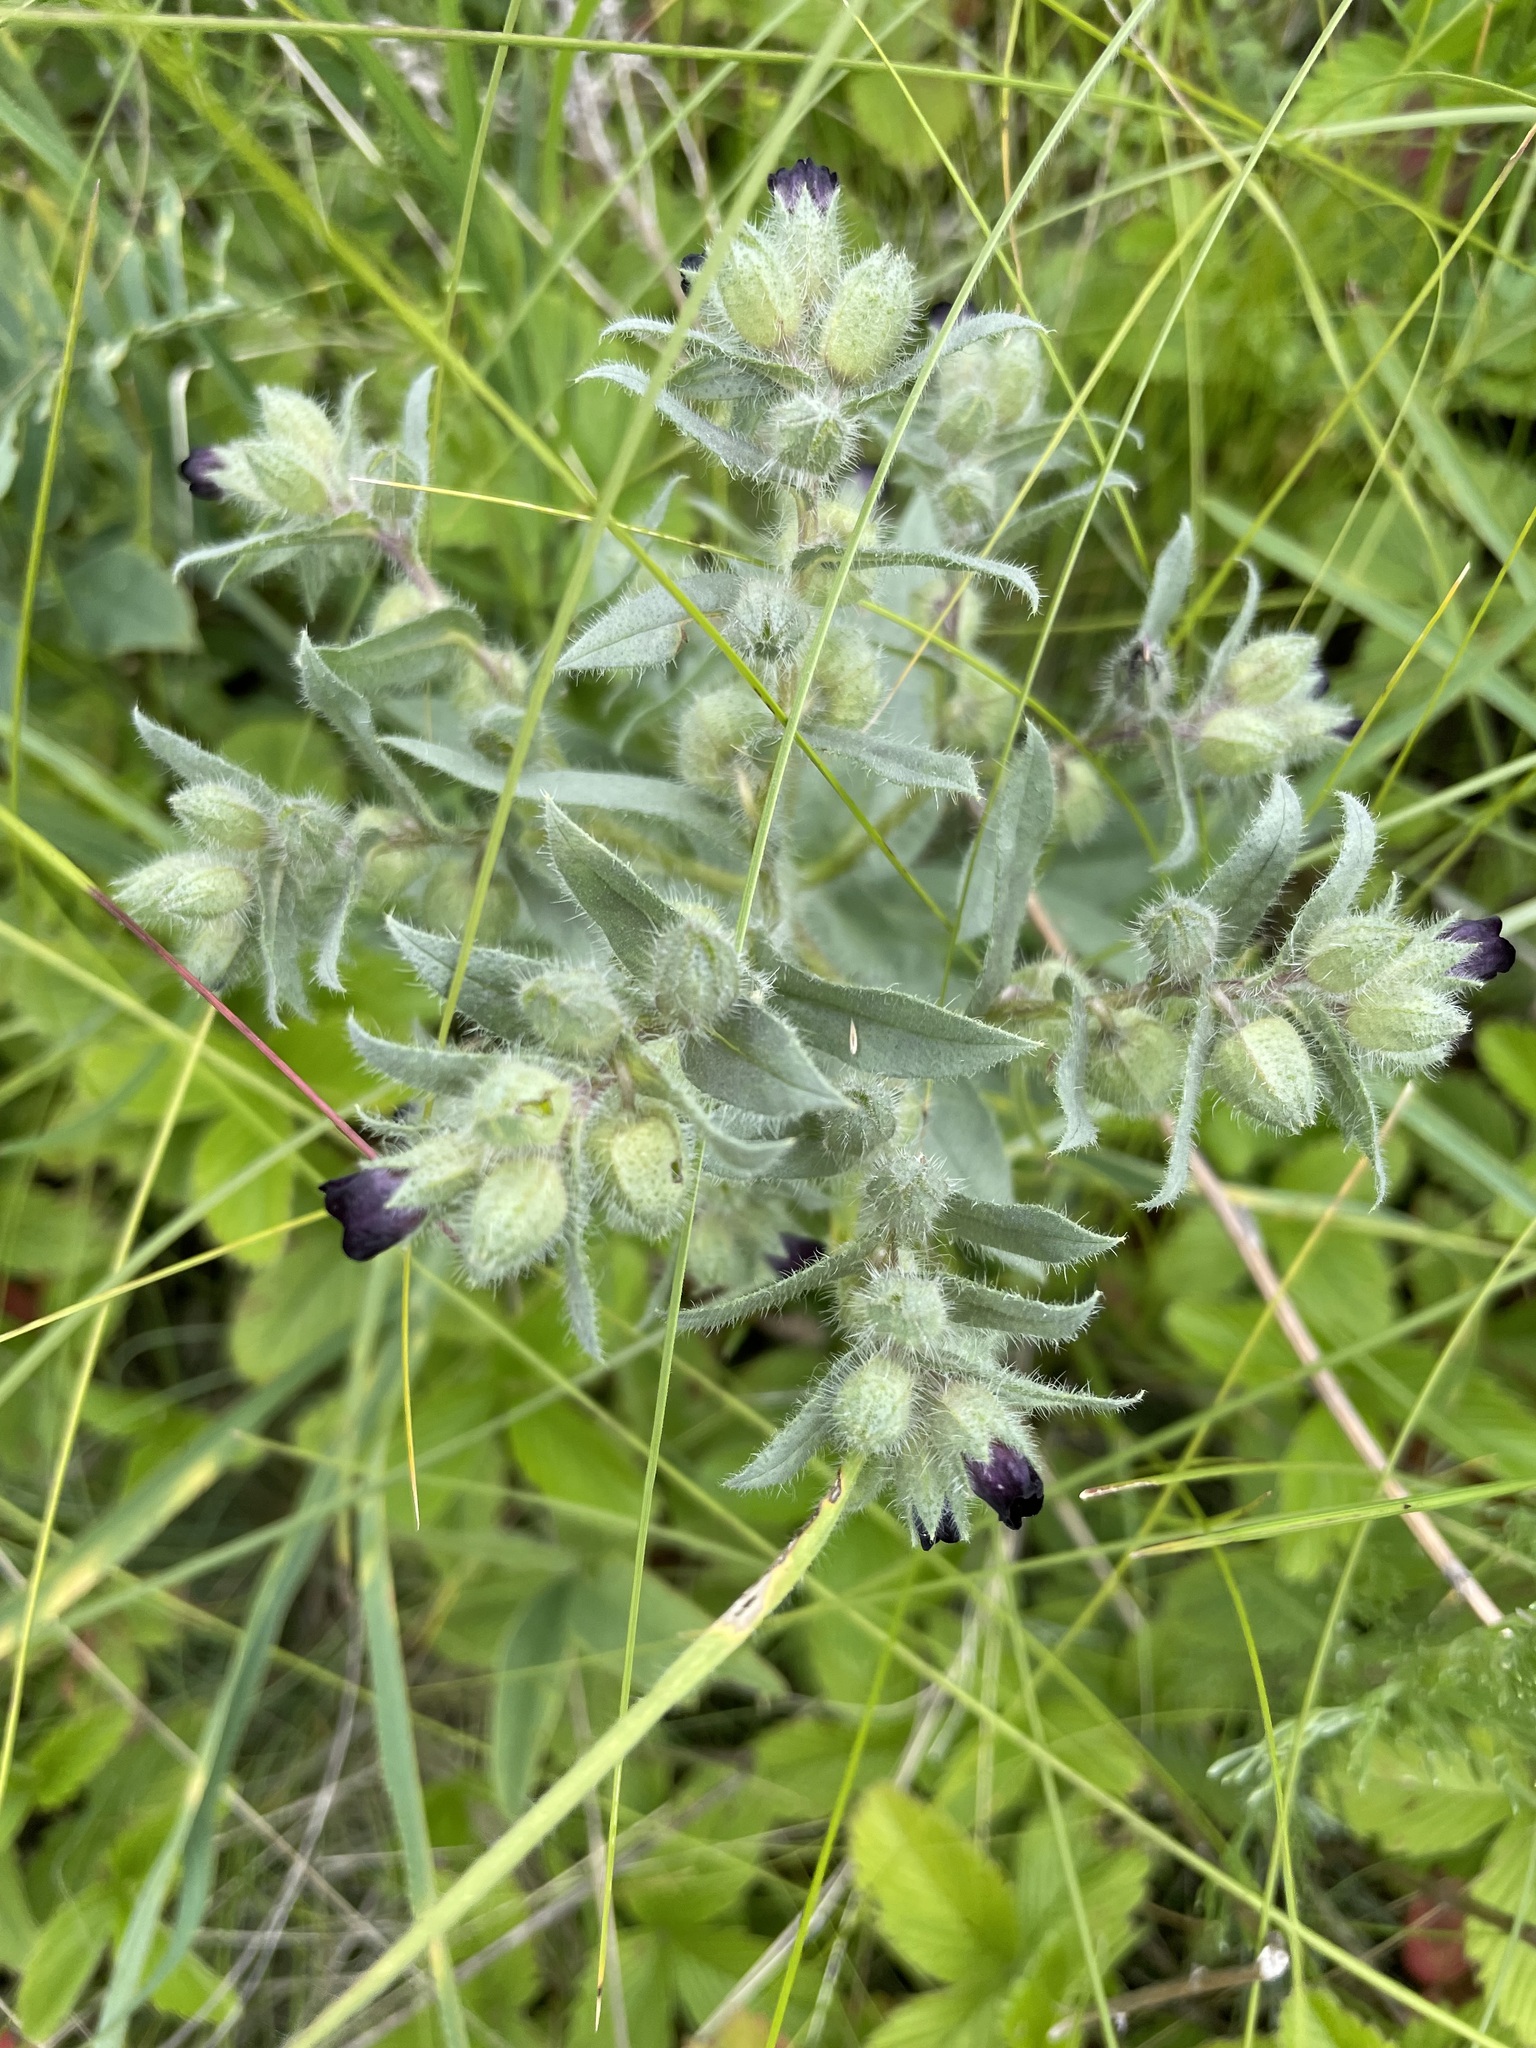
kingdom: Plantae
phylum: Tracheophyta
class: Magnoliopsida
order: Boraginales
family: Boraginaceae
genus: Nonea
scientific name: Nonea pulla
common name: Brown nonea
